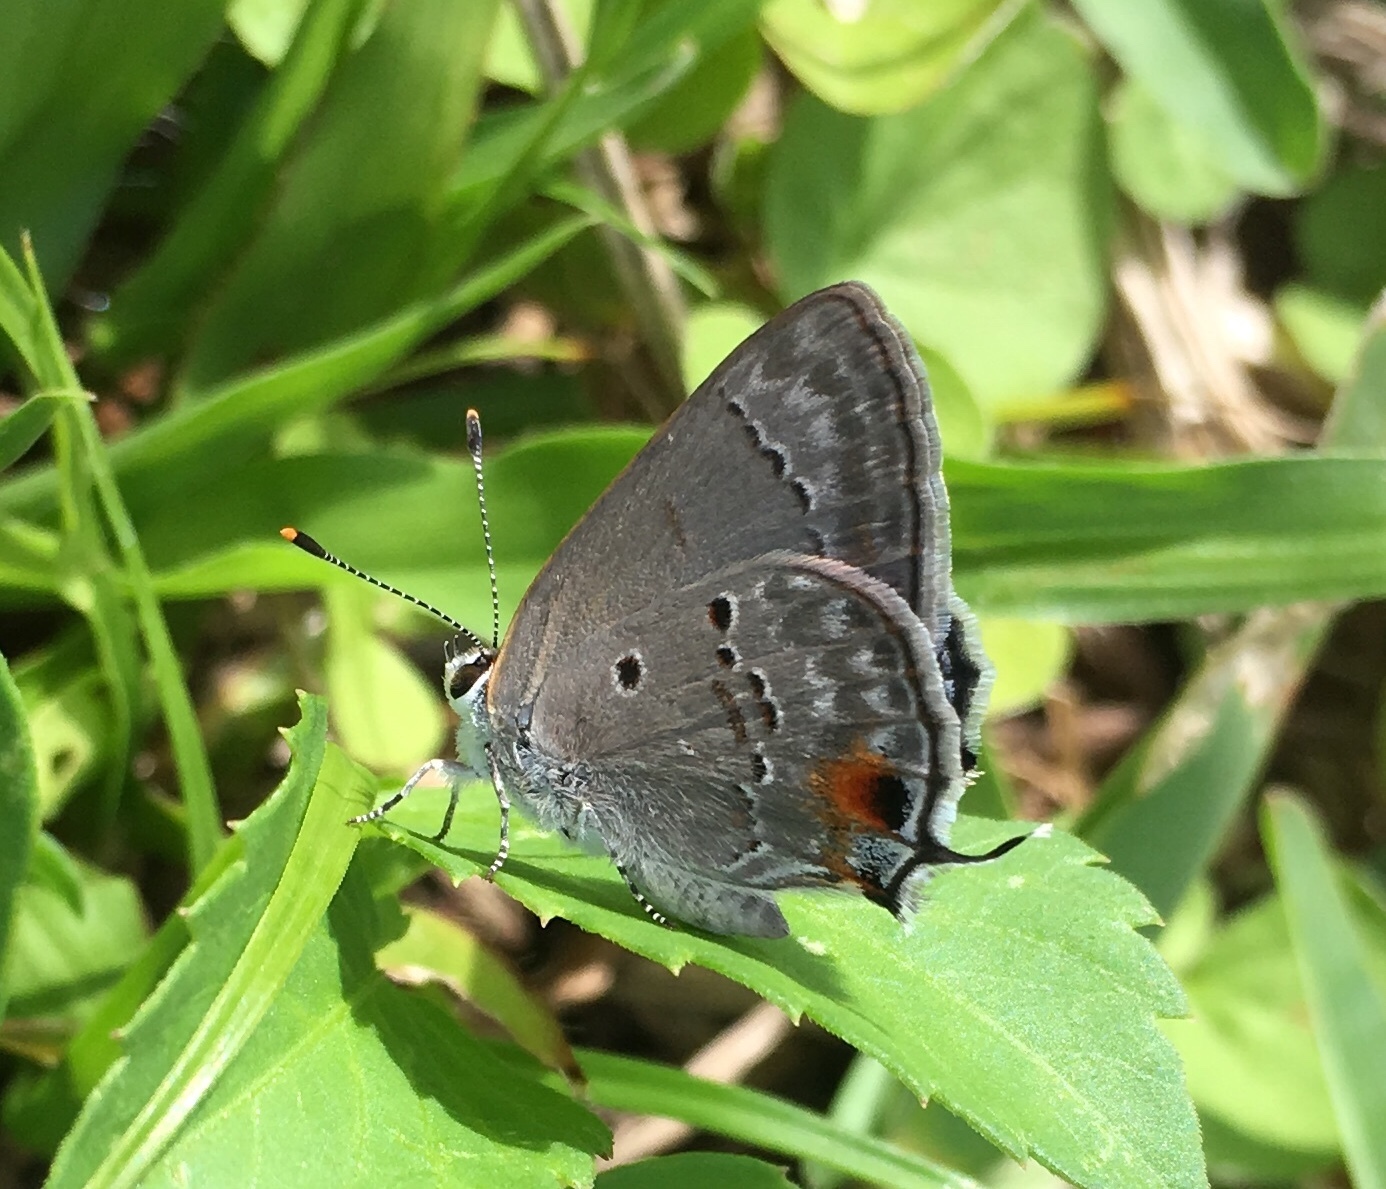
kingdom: Animalia
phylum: Arthropoda
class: Insecta
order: Lepidoptera
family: Lycaenidae
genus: Callicista
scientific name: Callicista columella
